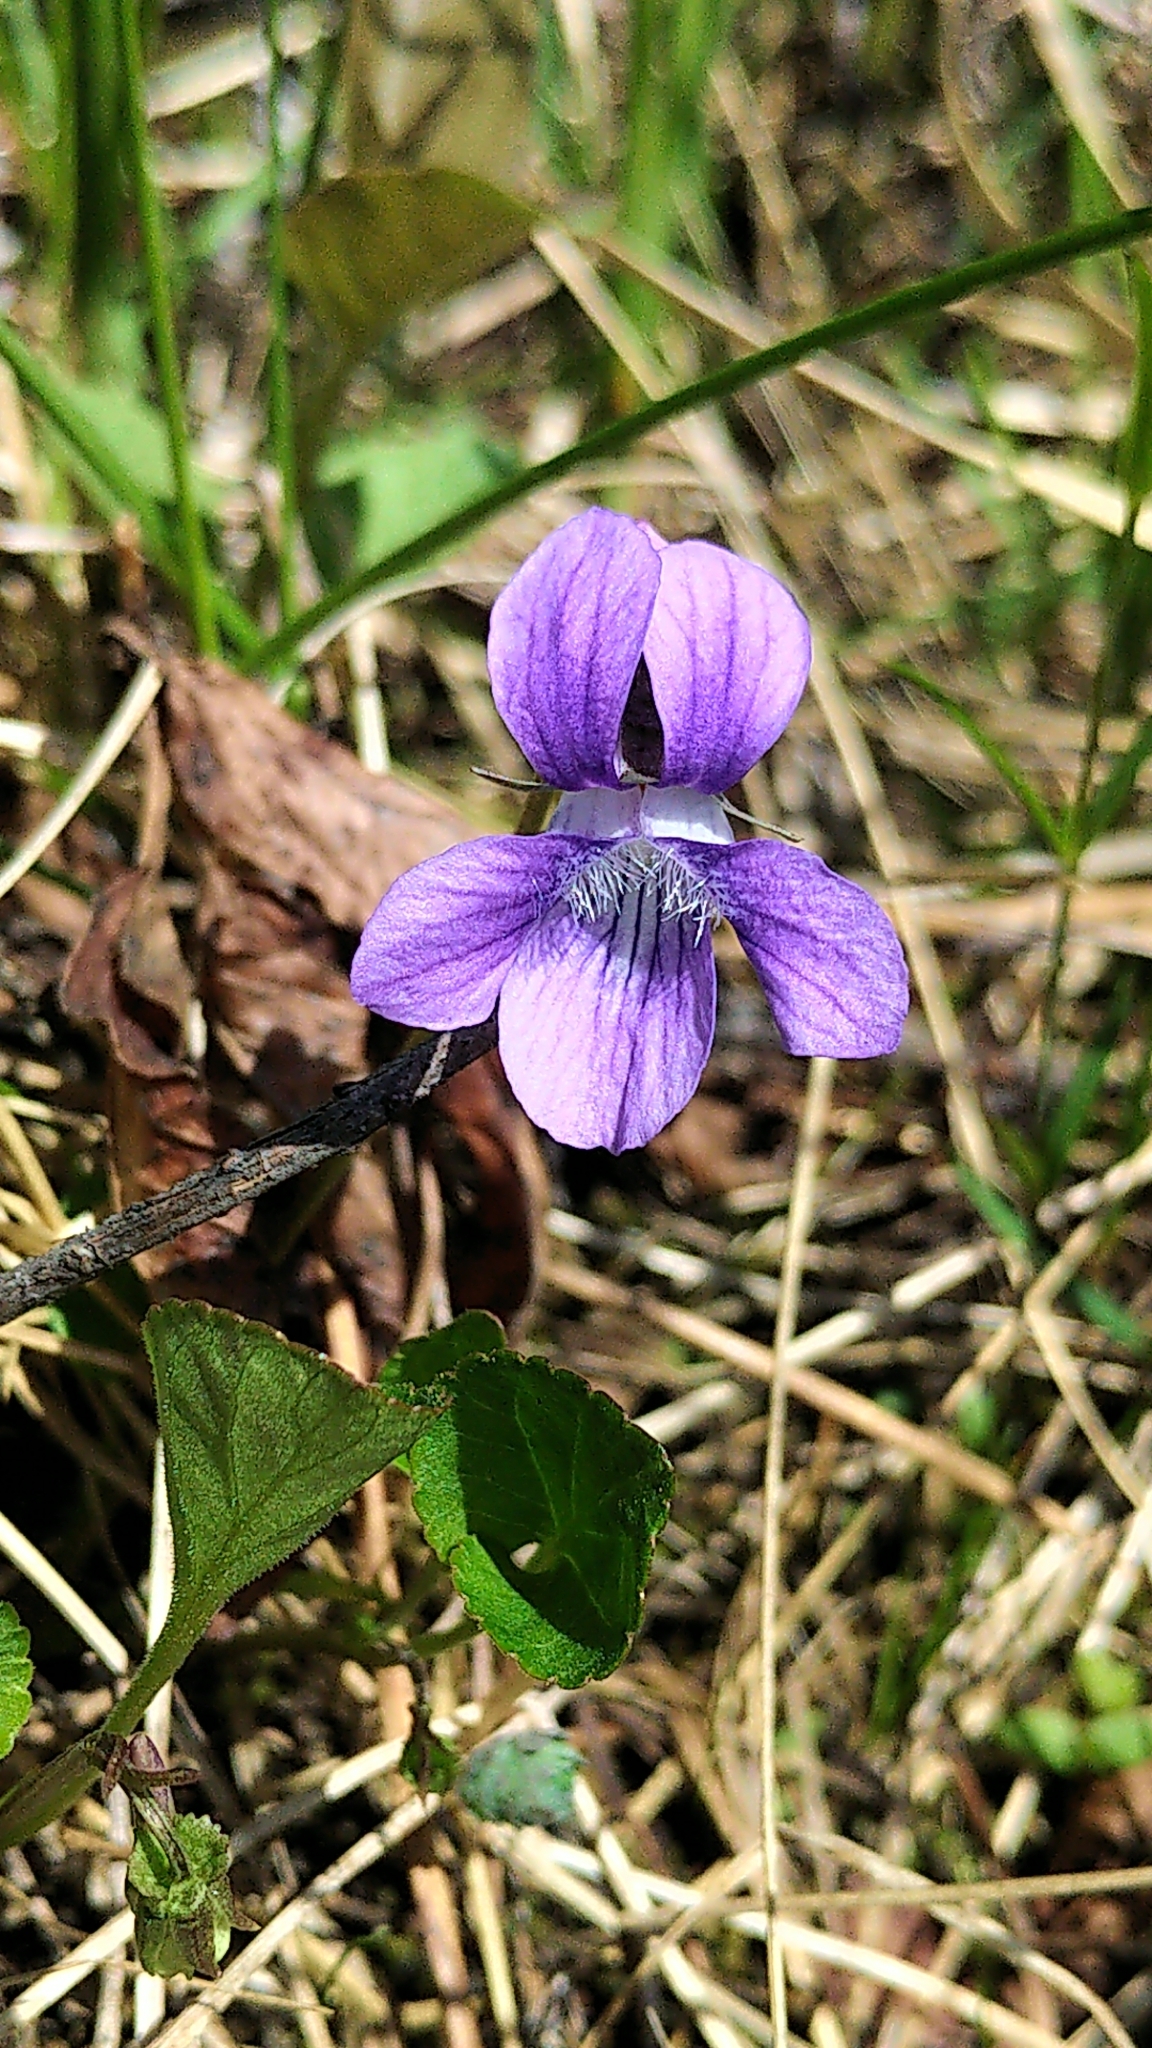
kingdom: Plantae
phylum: Tracheophyta
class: Magnoliopsida
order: Malpighiales
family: Violaceae
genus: Viola
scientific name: Viola adunca
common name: Sand violet
